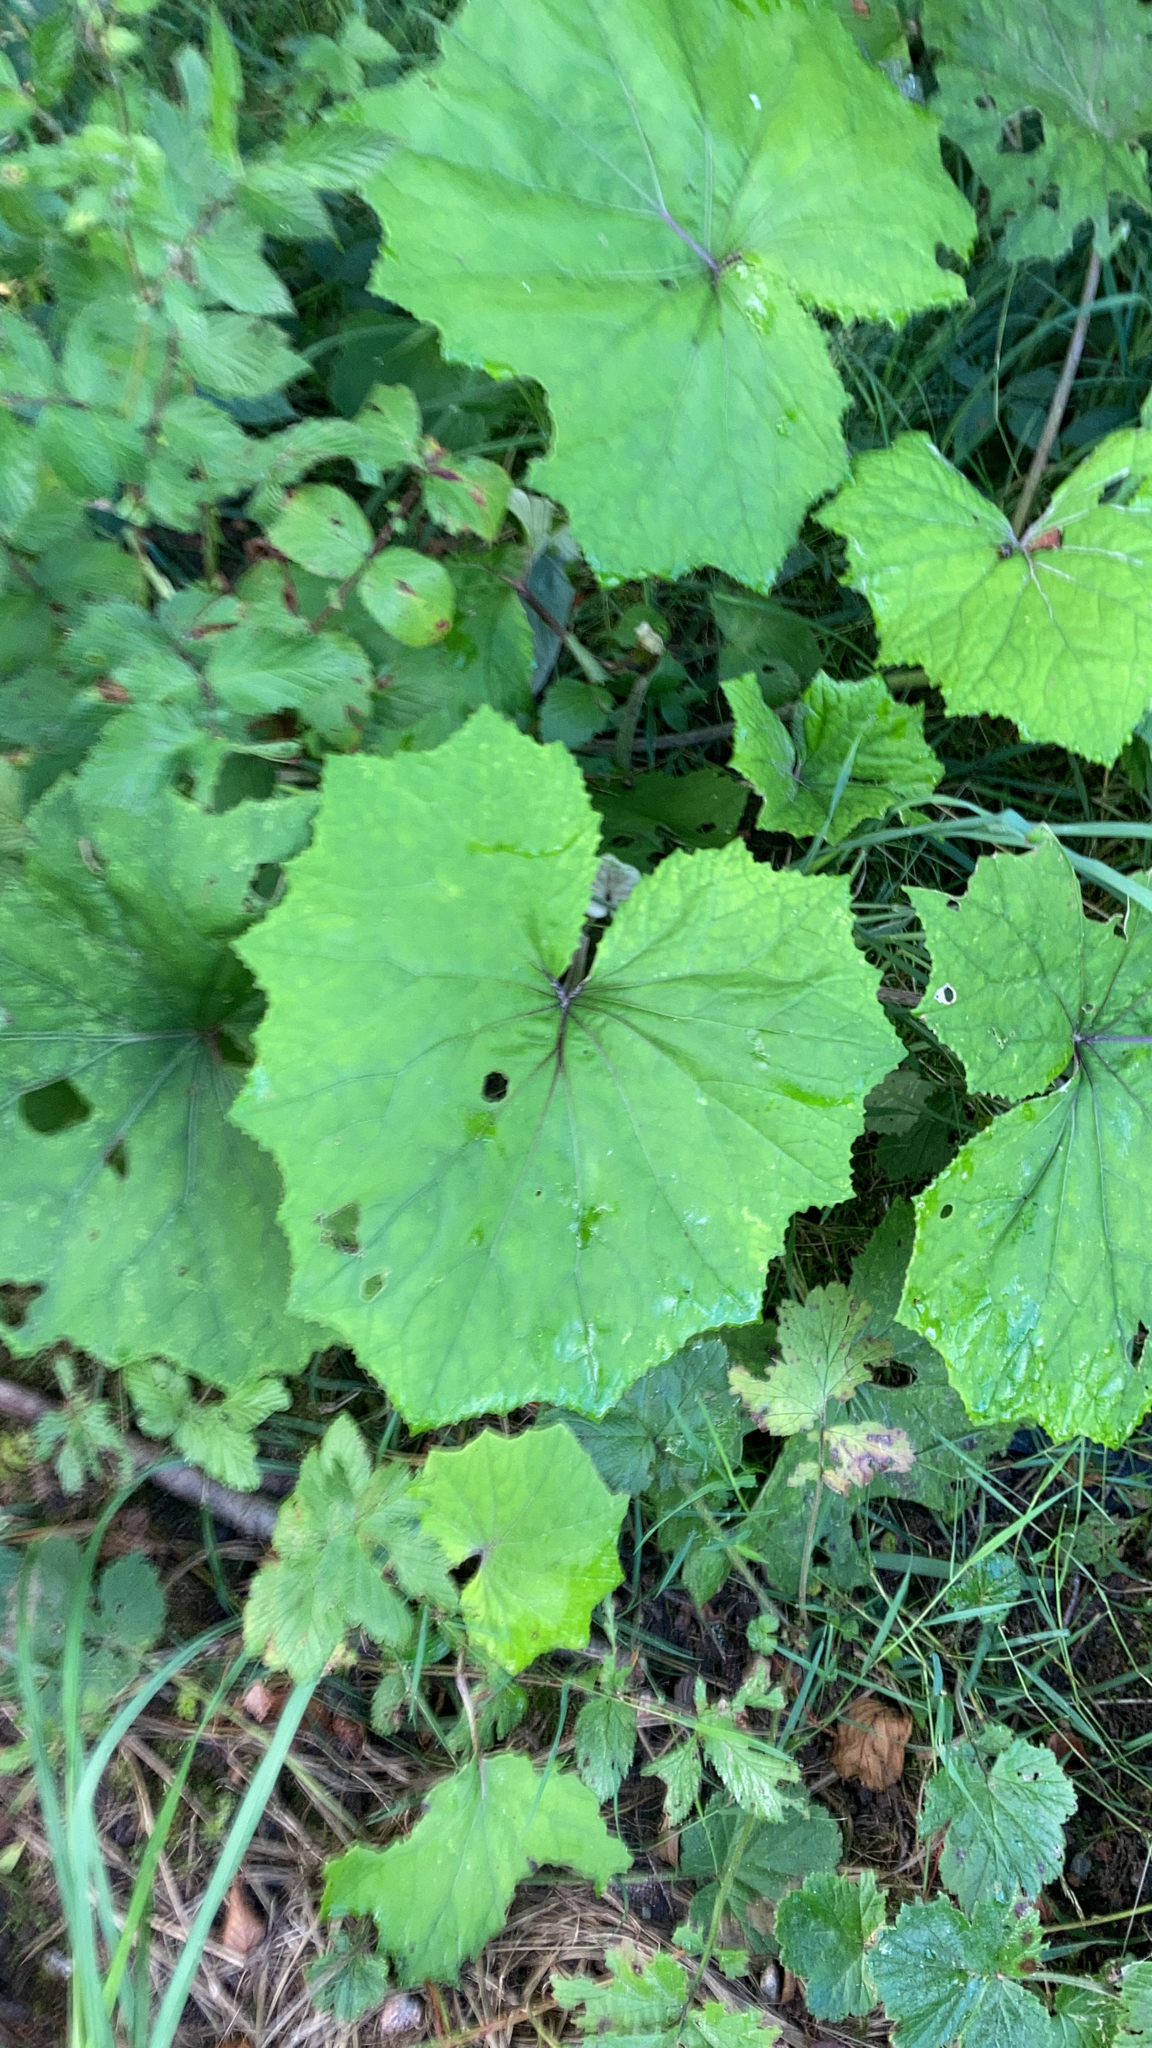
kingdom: Plantae
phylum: Tracheophyta
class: Magnoliopsida
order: Asterales
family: Asteraceae
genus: Tussilago
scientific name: Tussilago farfara
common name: Coltsfoot
